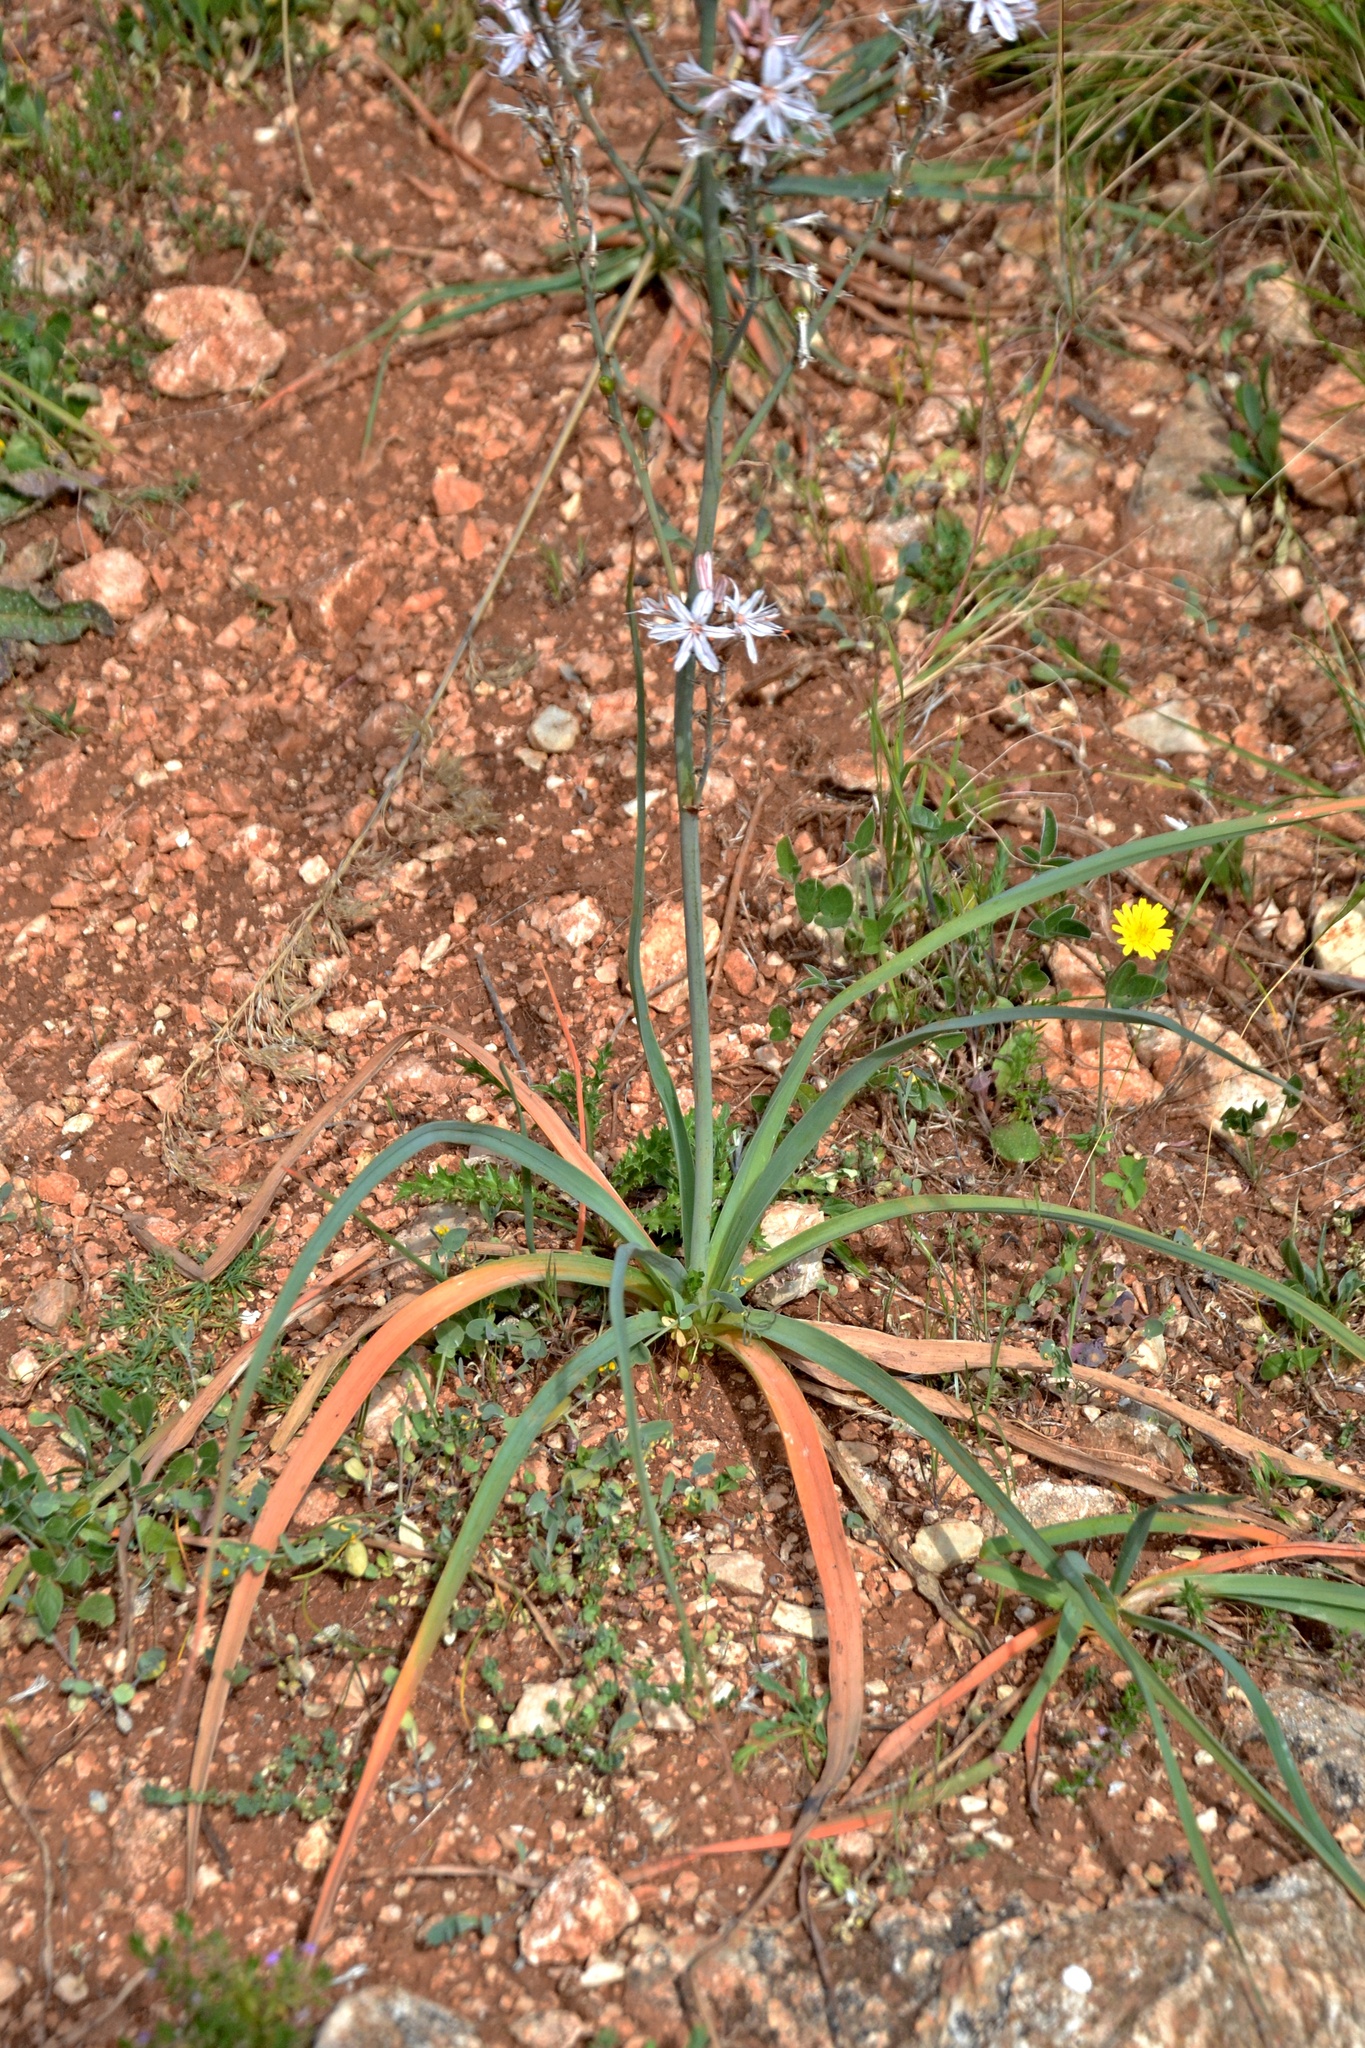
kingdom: Plantae
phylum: Tracheophyta
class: Liliopsida
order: Asparagales
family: Asphodelaceae
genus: Asphodelus
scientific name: Asphodelus ramosus
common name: Silverrod
